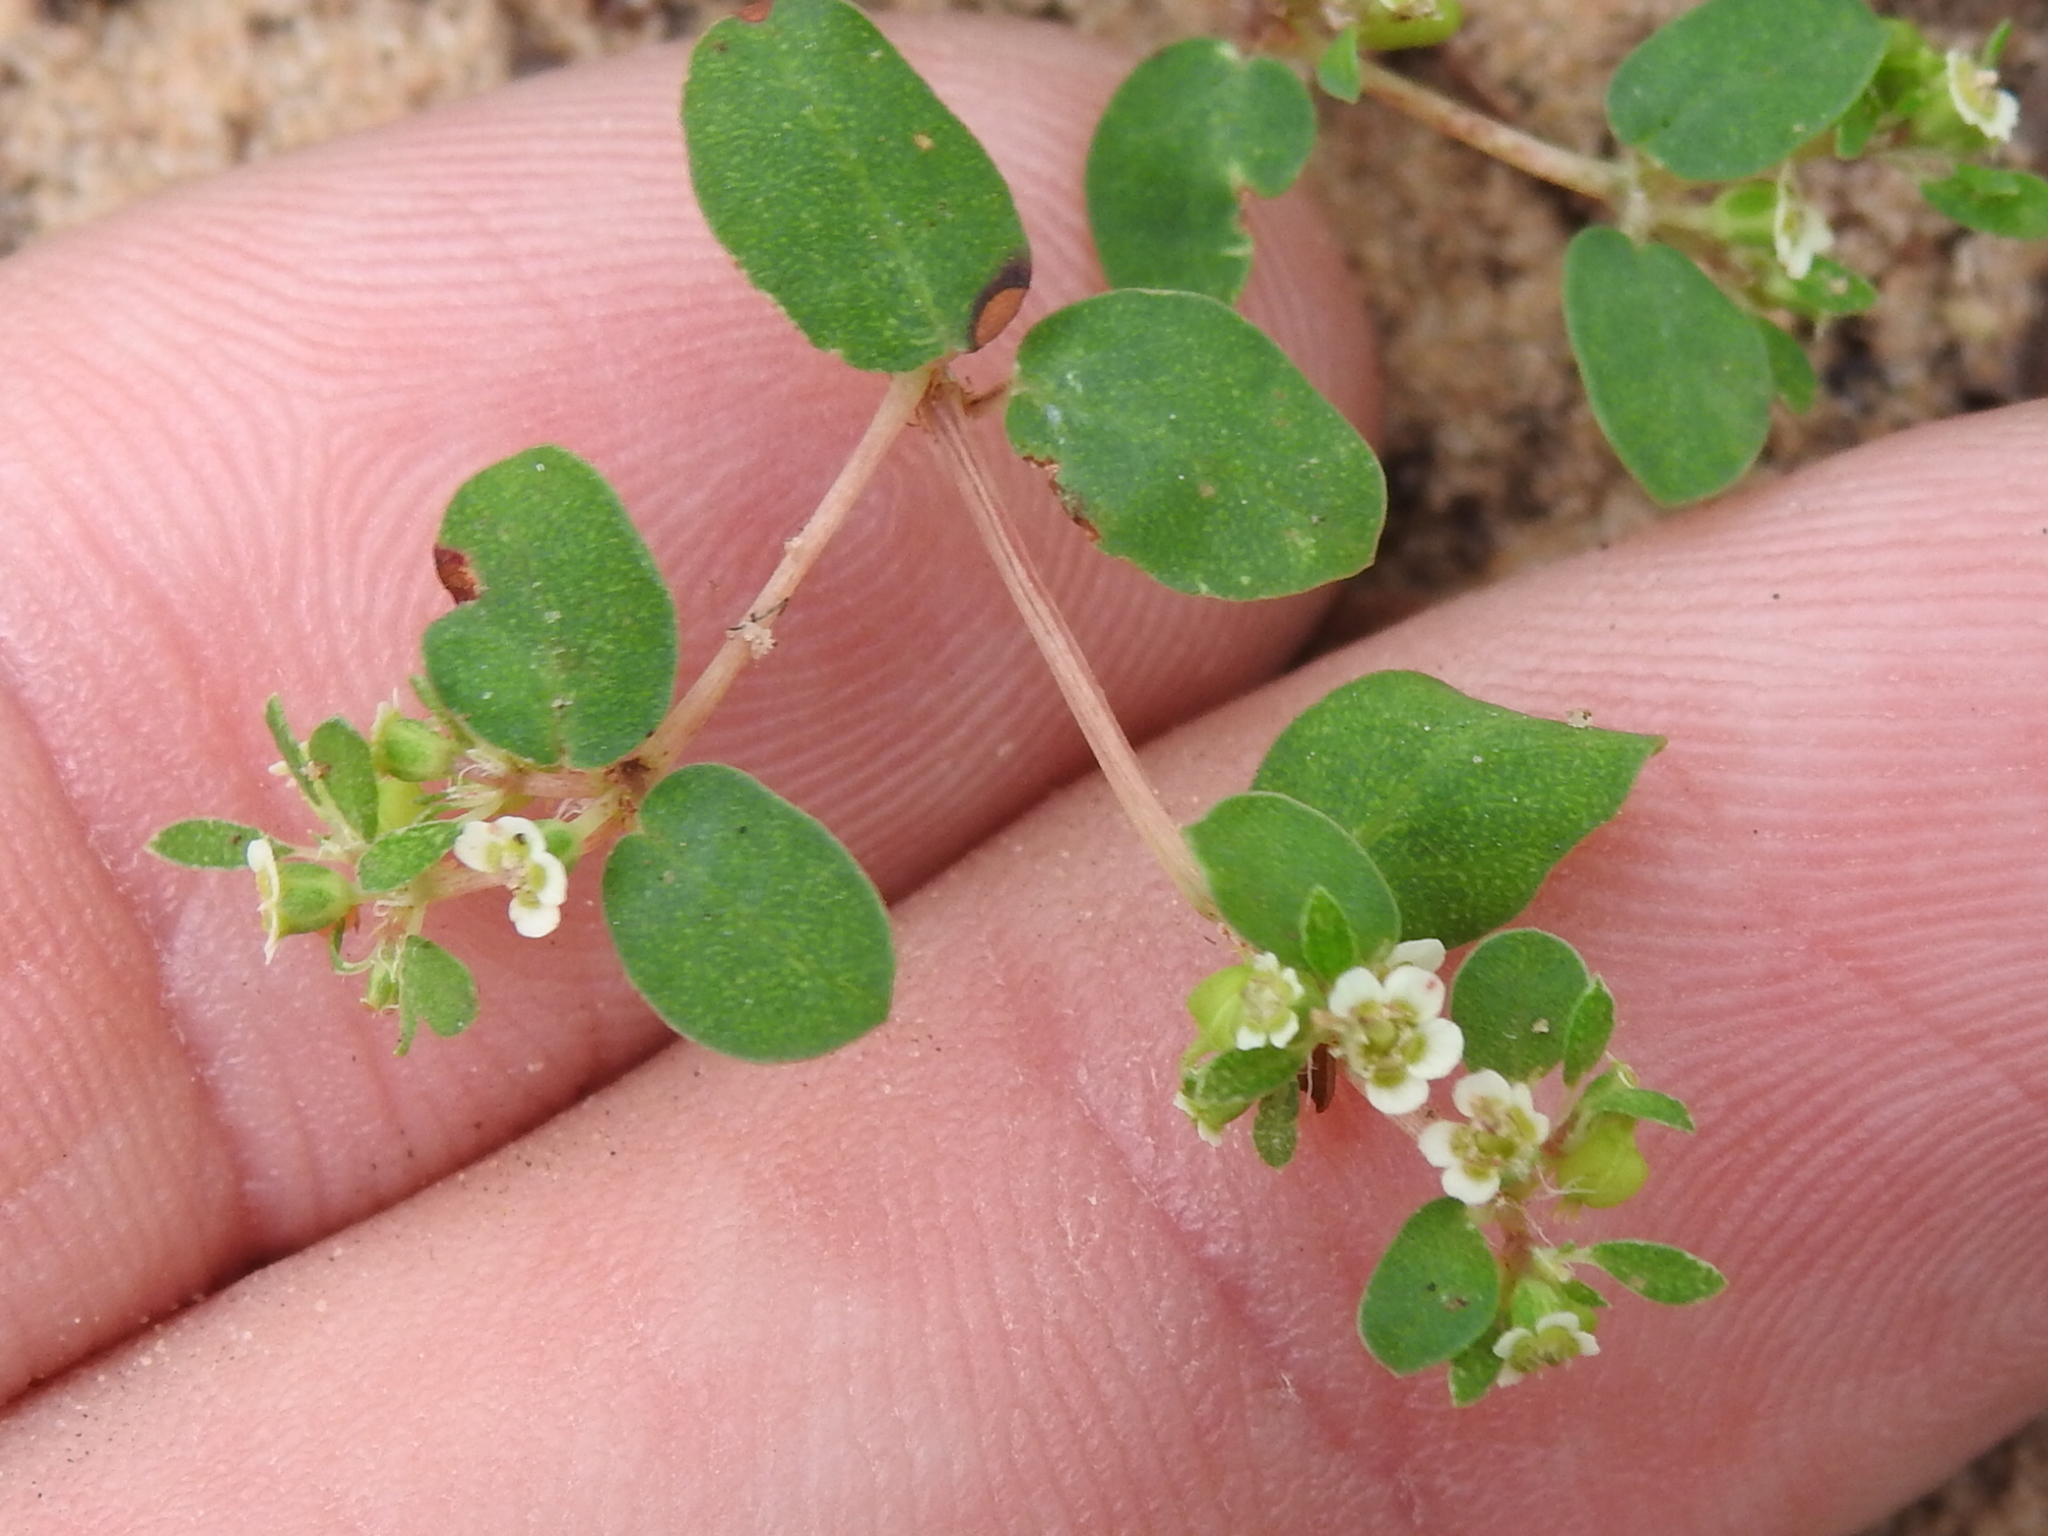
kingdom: Plantae
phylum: Tracheophyta
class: Magnoliopsida
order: Malpighiales
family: Euphorbiaceae
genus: Euphorbia
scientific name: Euphorbia cordifolia
